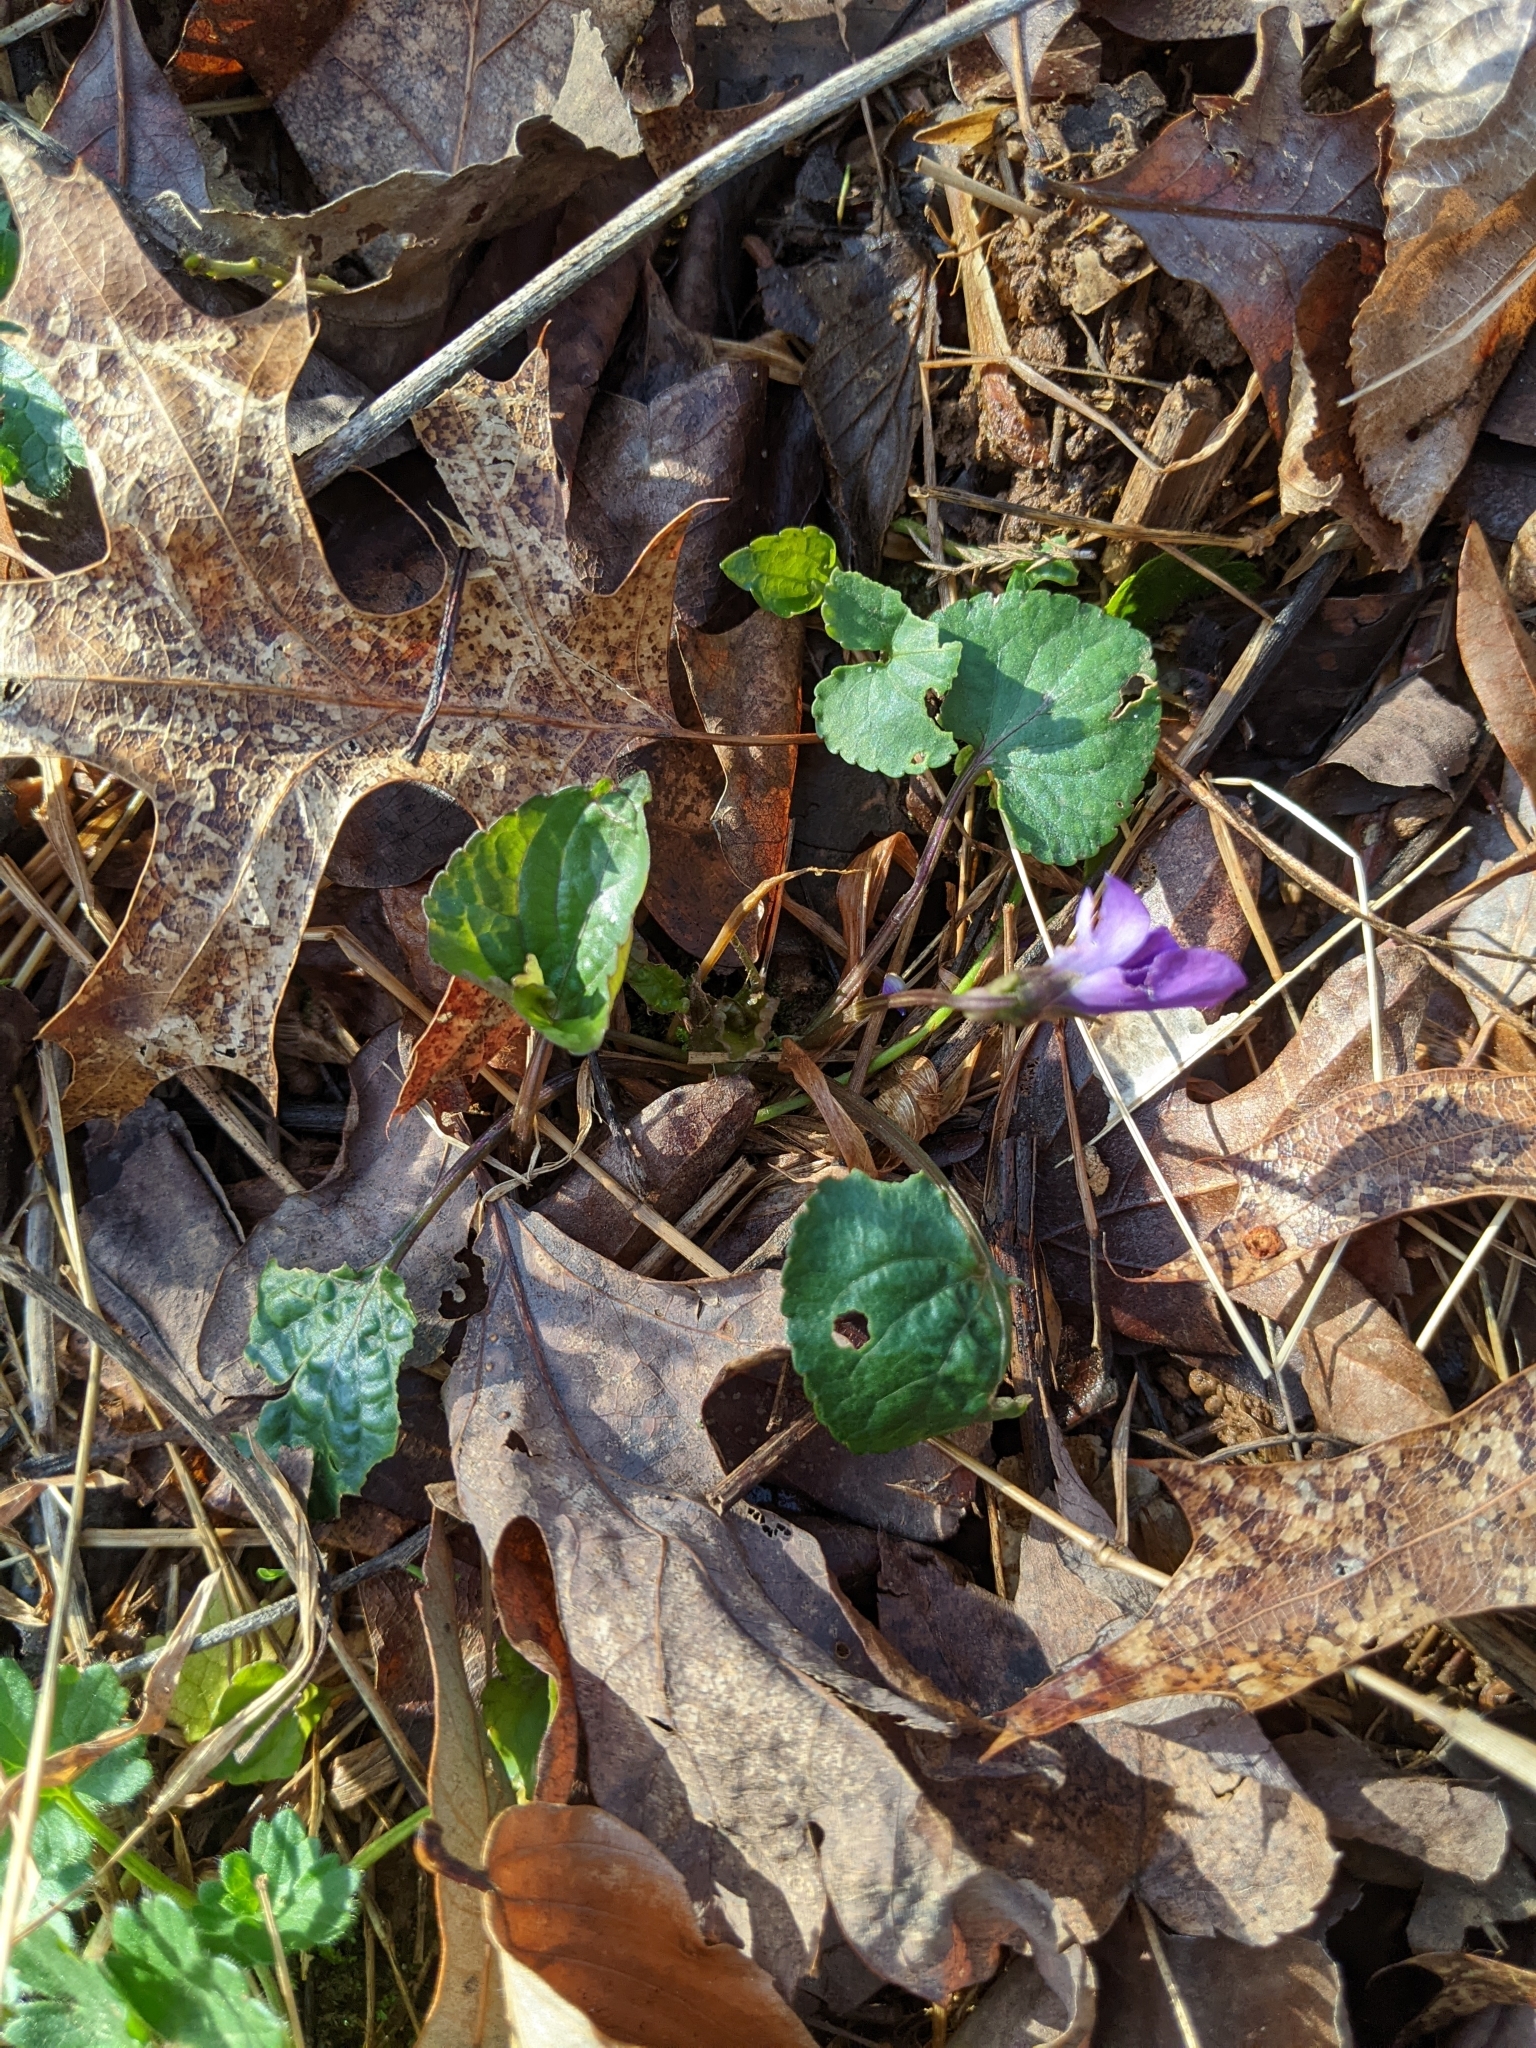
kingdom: Plantae
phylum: Tracheophyta
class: Magnoliopsida
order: Malpighiales
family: Violaceae
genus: Viola
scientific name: Viola sororia
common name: Dooryard violet
